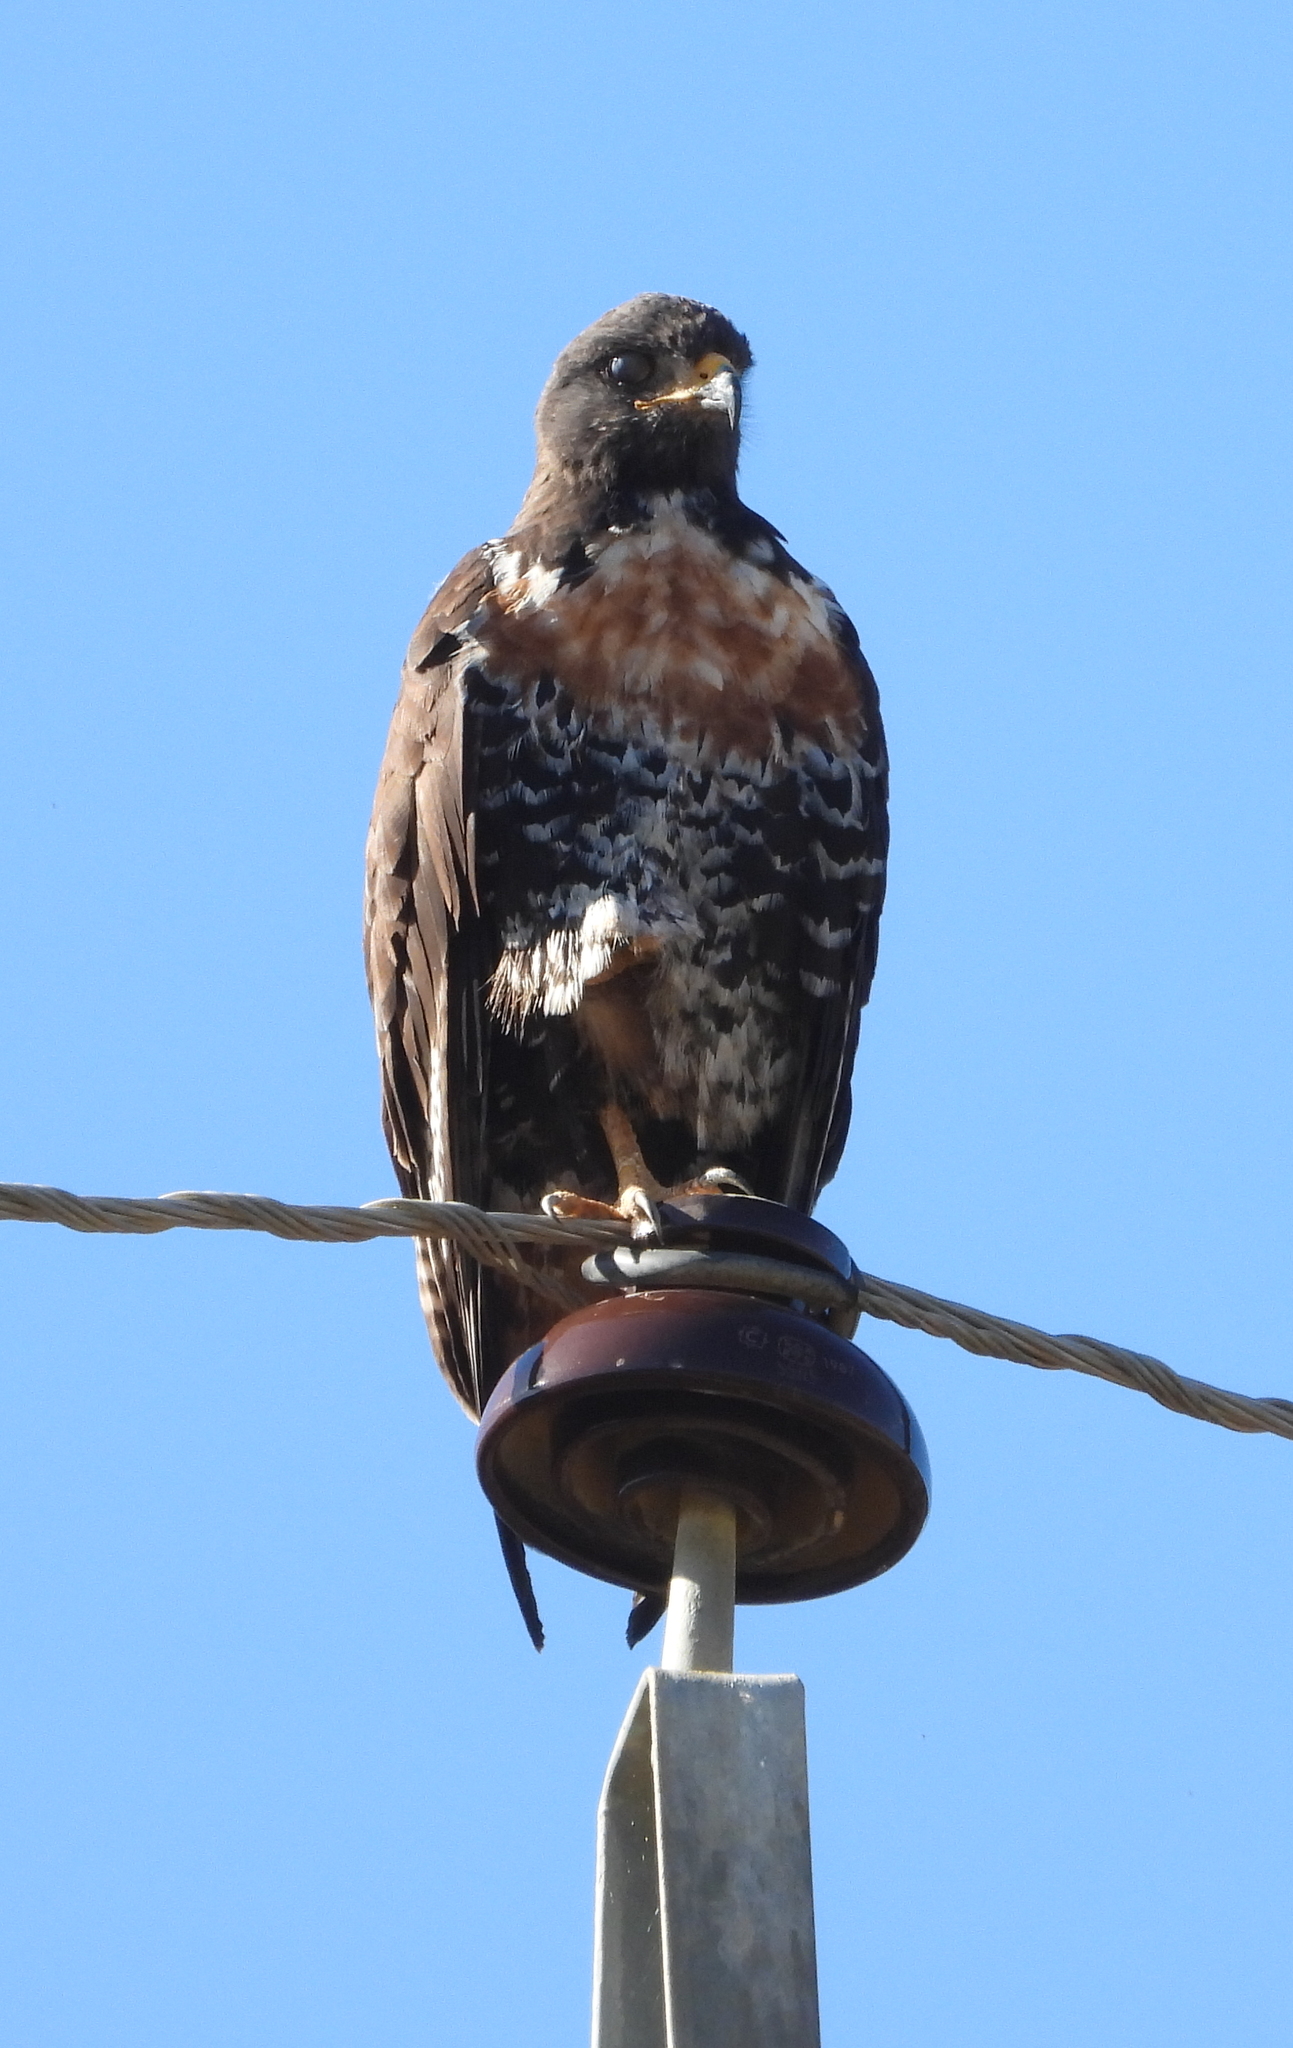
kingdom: Animalia
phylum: Chordata
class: Aves
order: Accipitriformes
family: Accipitridae
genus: Buteo
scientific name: Buteo rufofuscus
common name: Jackal buzzard
